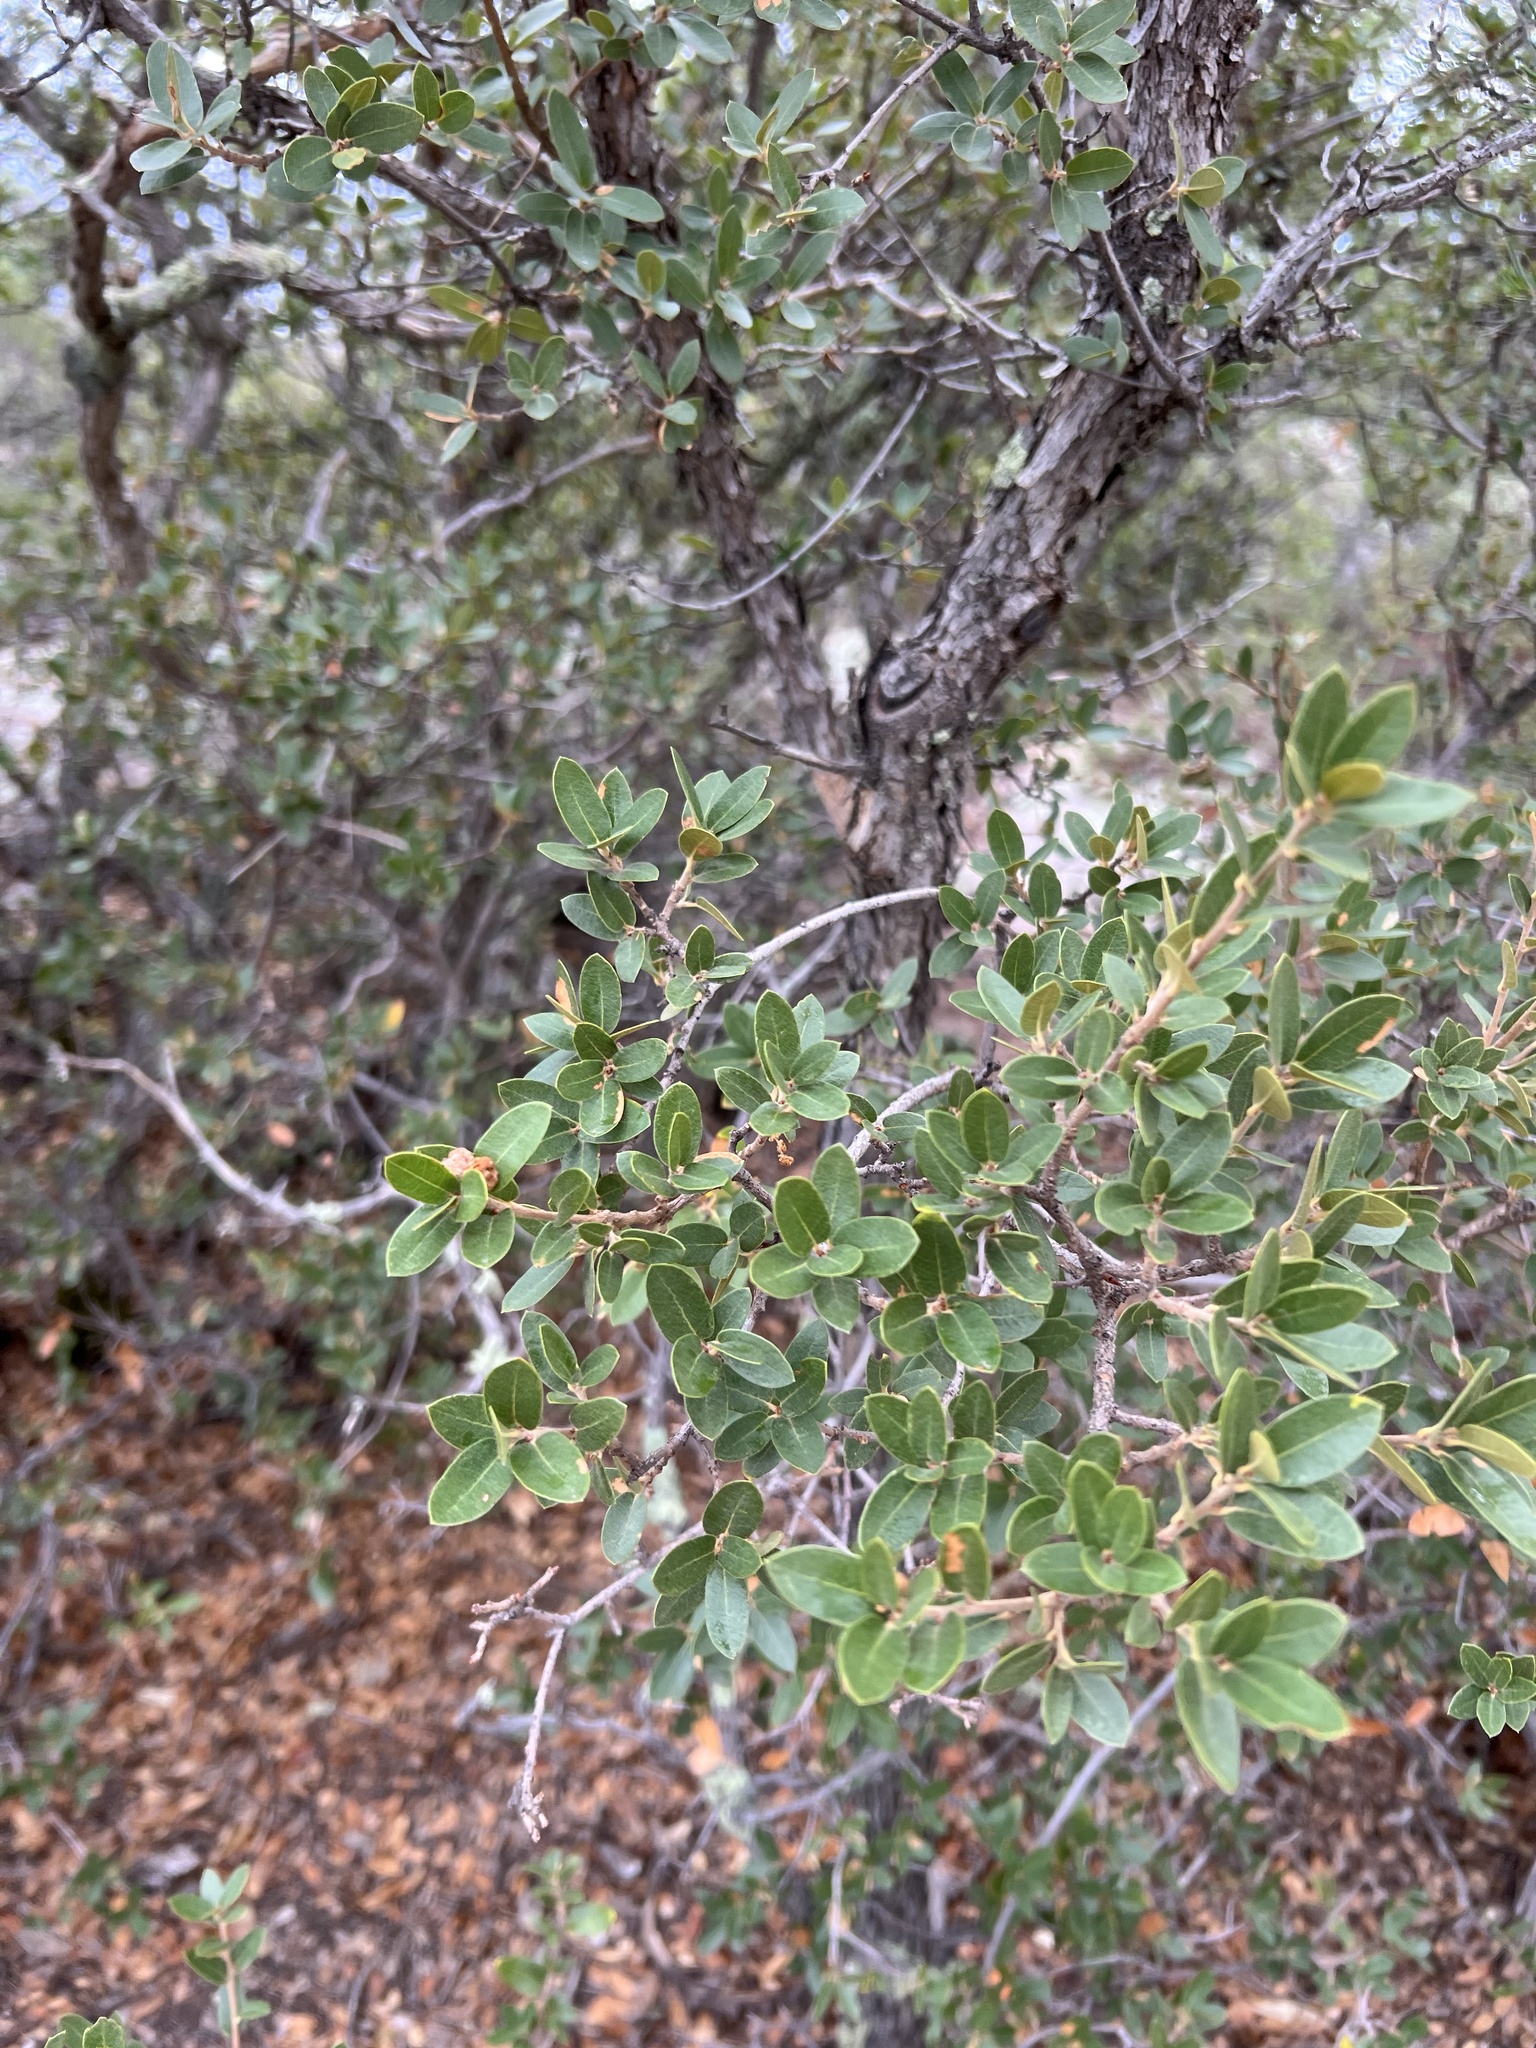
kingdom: Plantae
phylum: Tracheophyta
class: Magnoliopsida
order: Fagales
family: Fagaceae
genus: Quercus
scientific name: Quercus toumeyi
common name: Toumey oak
